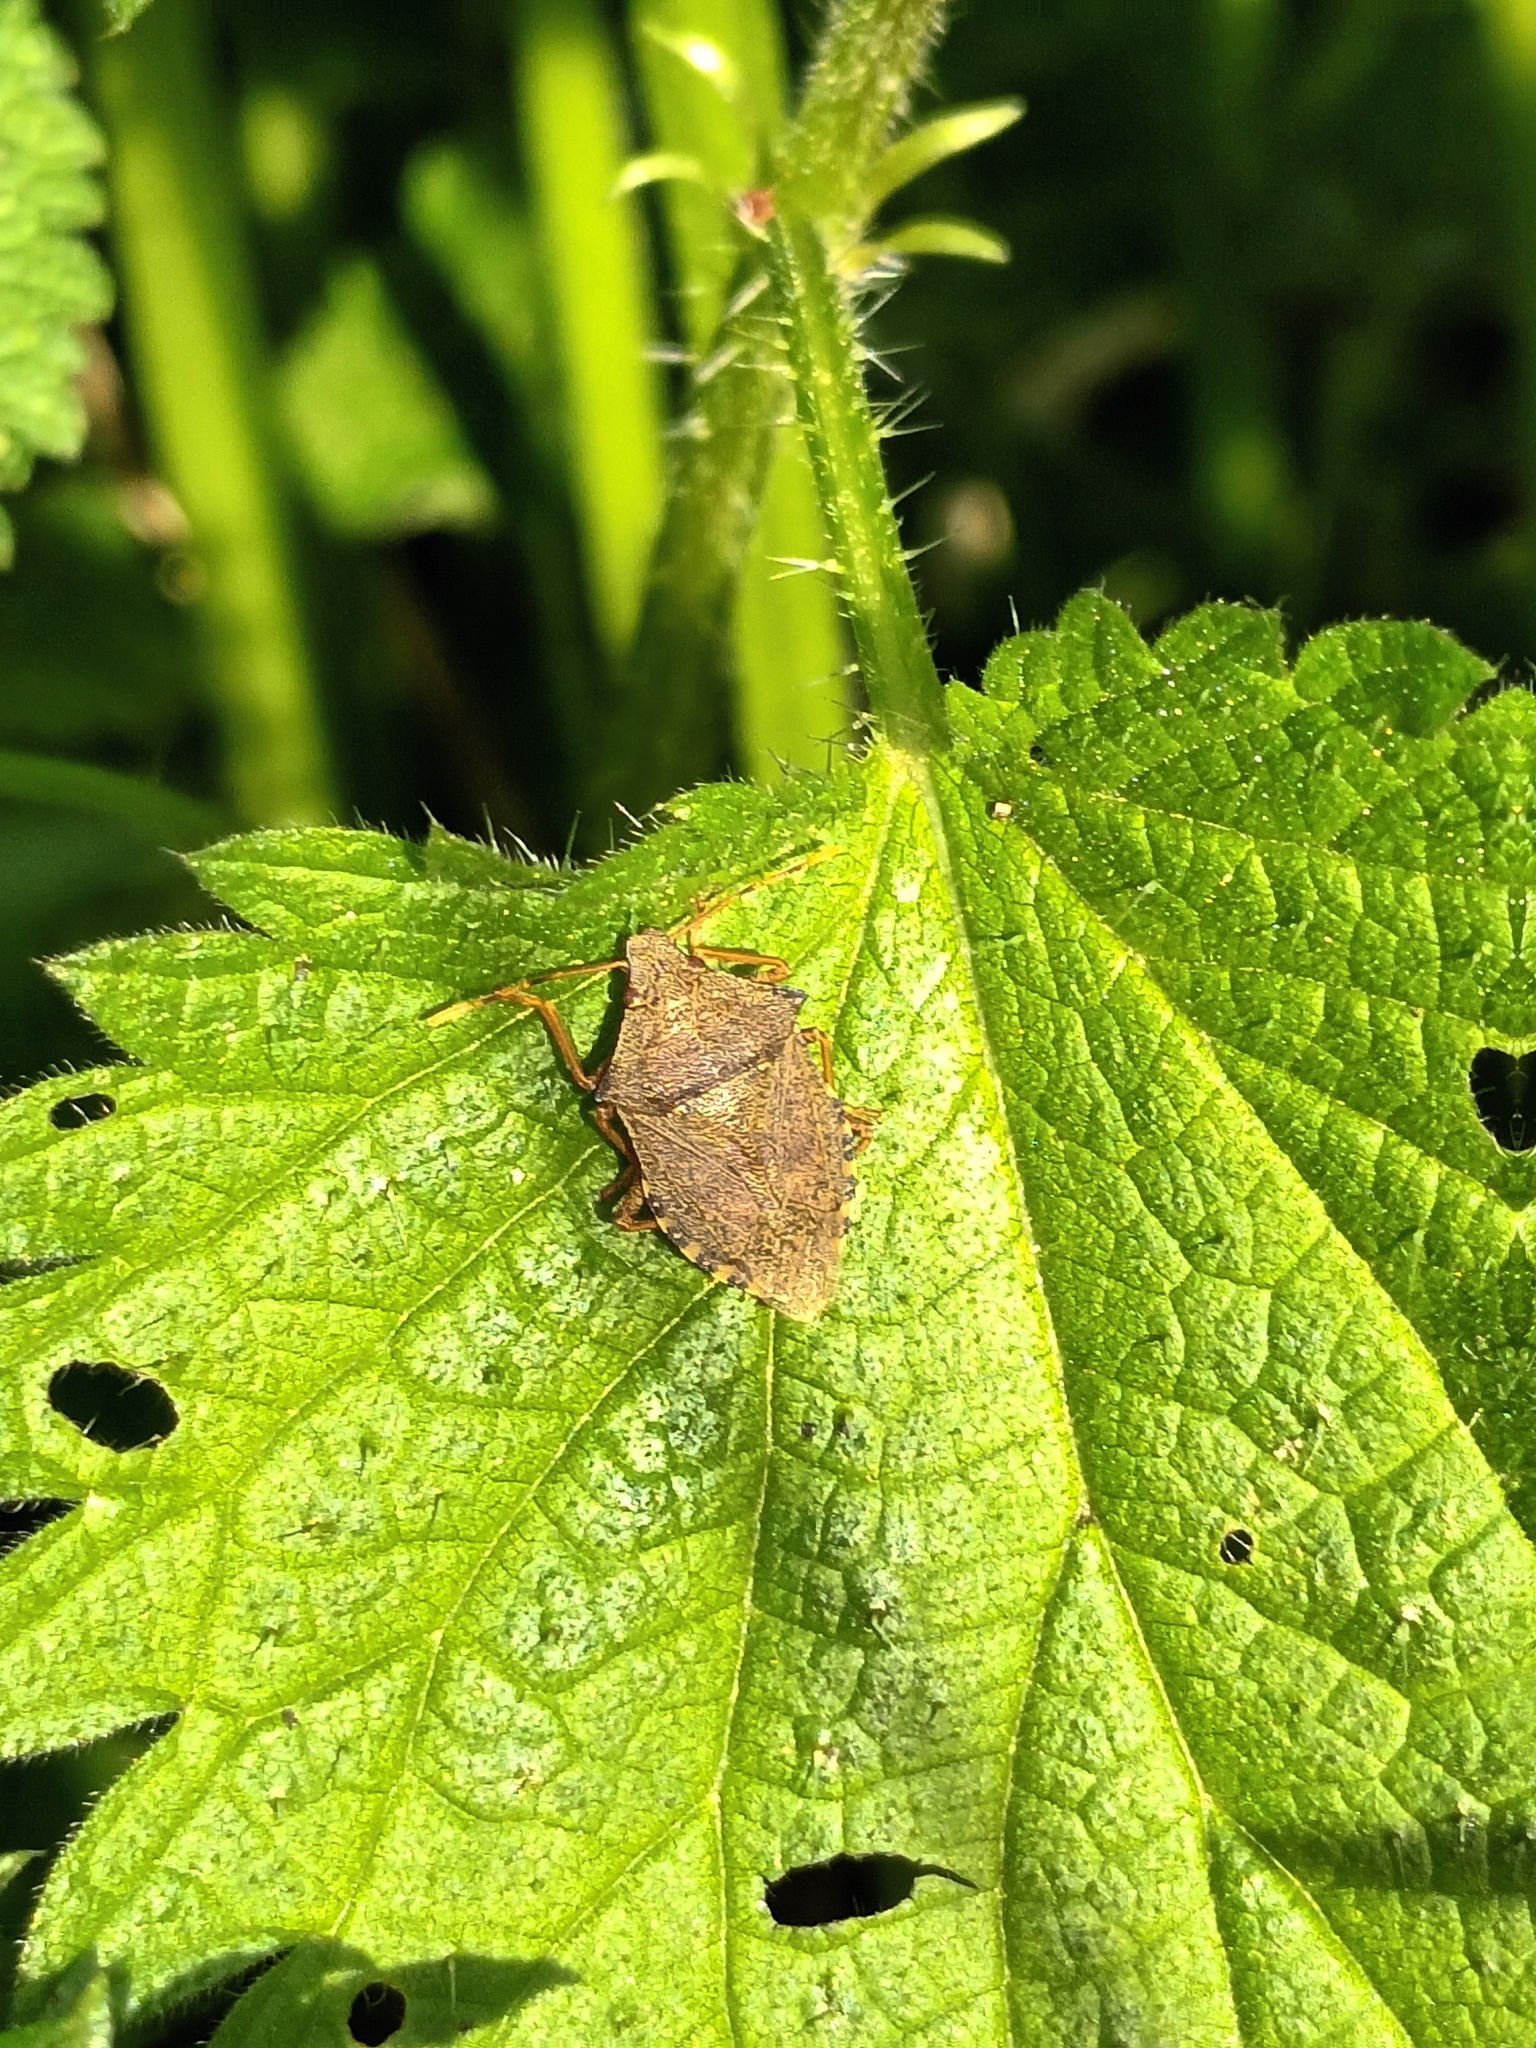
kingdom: Animalia
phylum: Arthropoda
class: Insecta
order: Hemiptera
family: Pentatomidae
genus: Arma
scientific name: Arma custos
